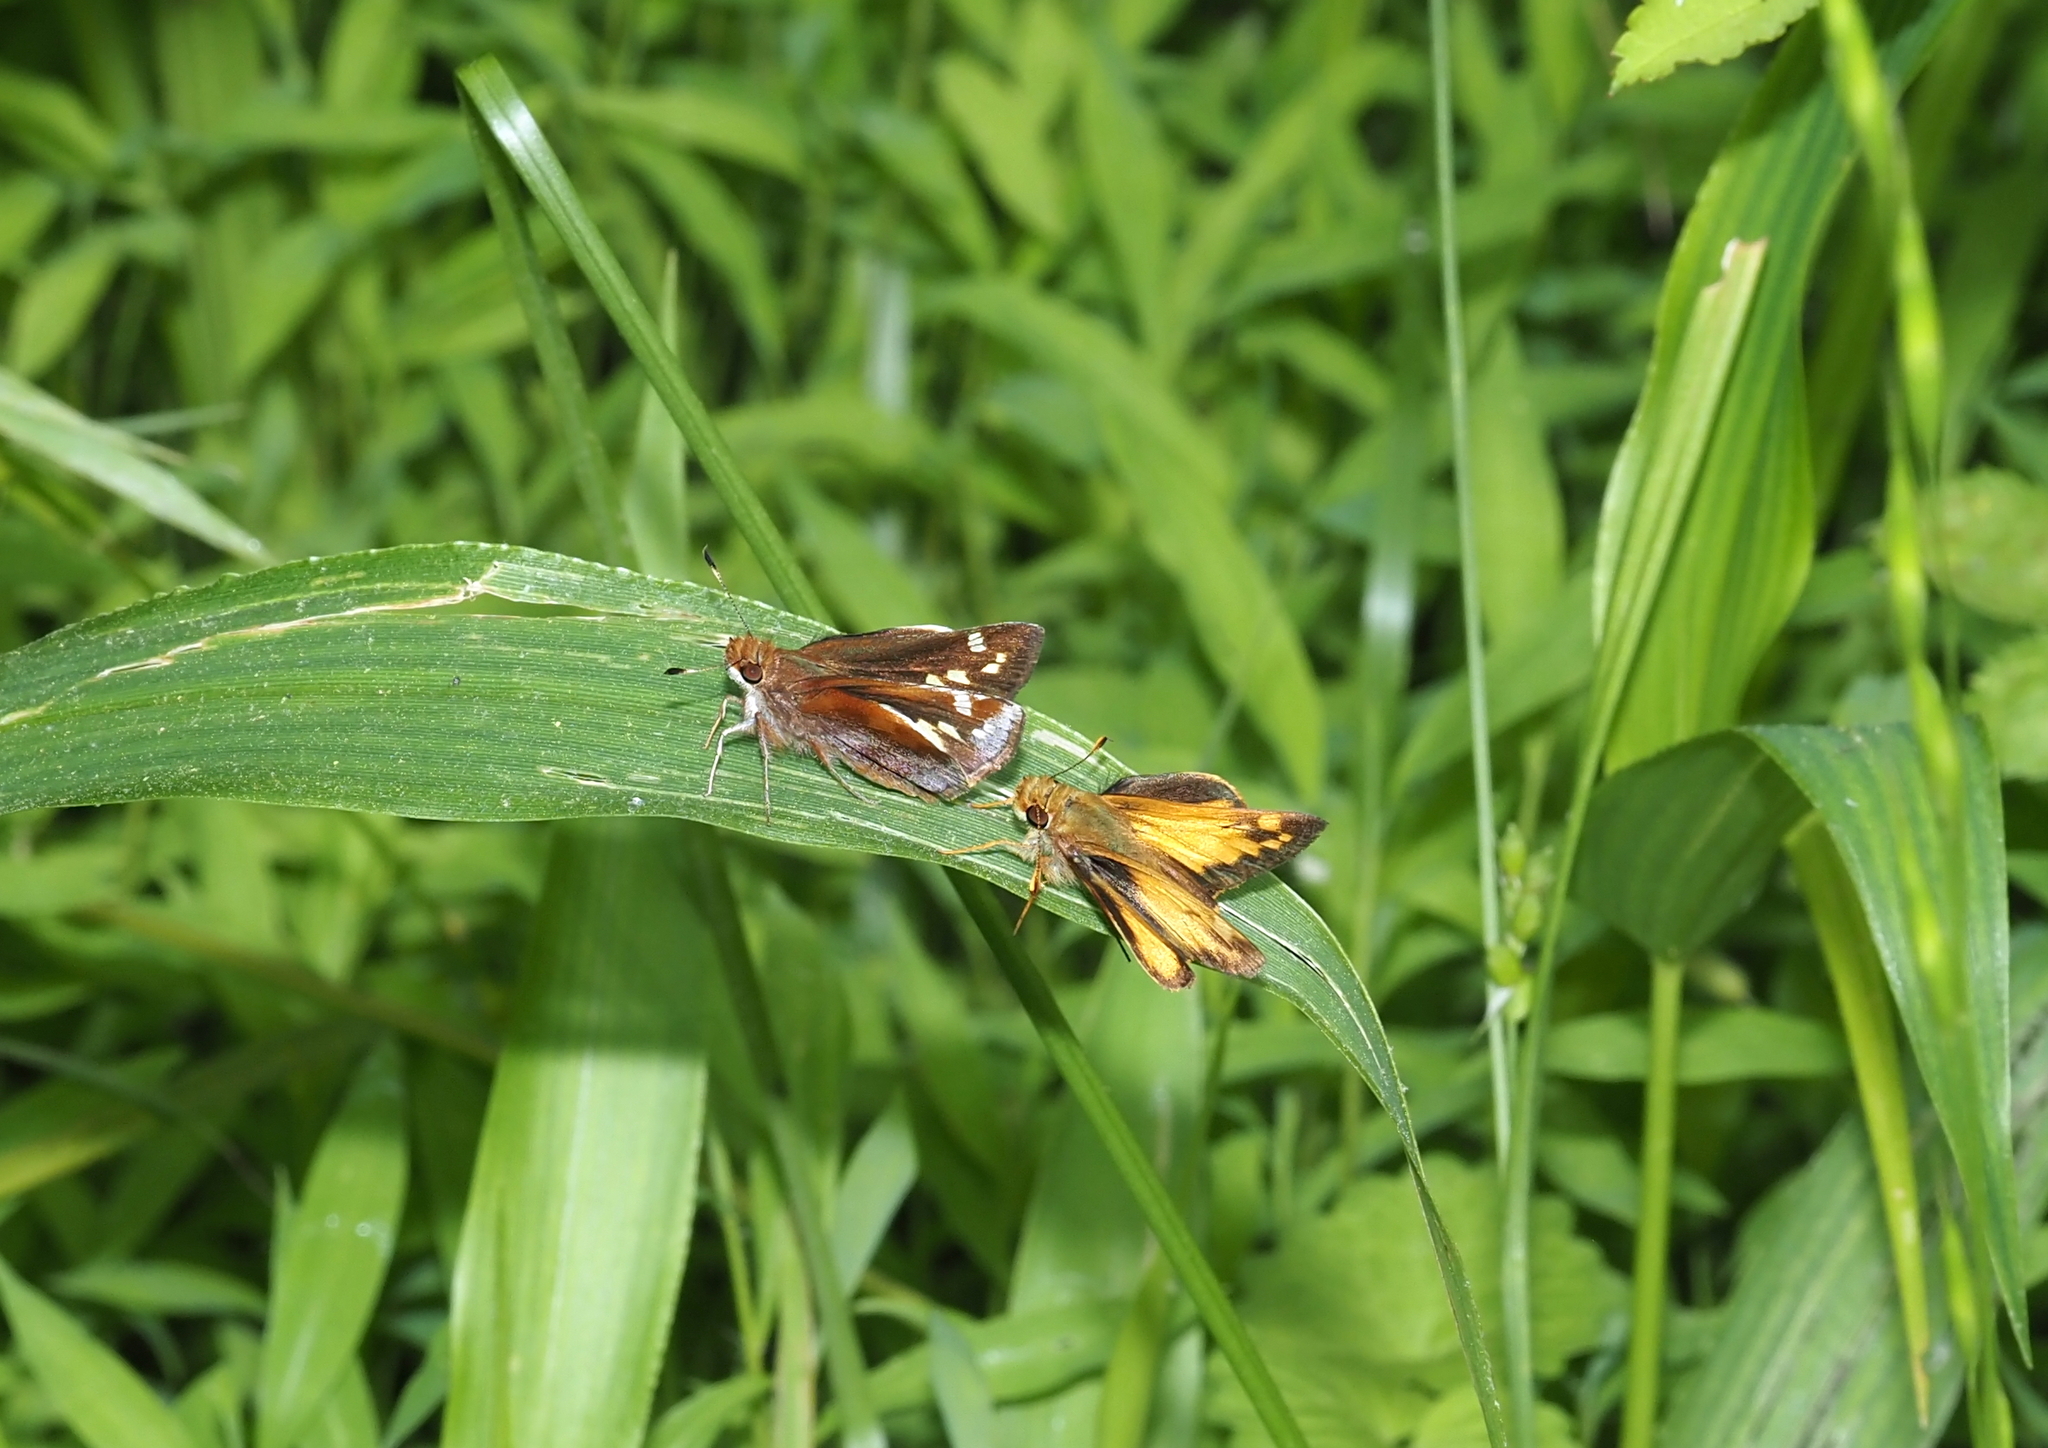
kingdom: Animalia
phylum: Arthropoda
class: Insecta
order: Lepidoptera
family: Hesperiidae
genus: Lon
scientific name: Lon zabulon
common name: Zabulon skipper
